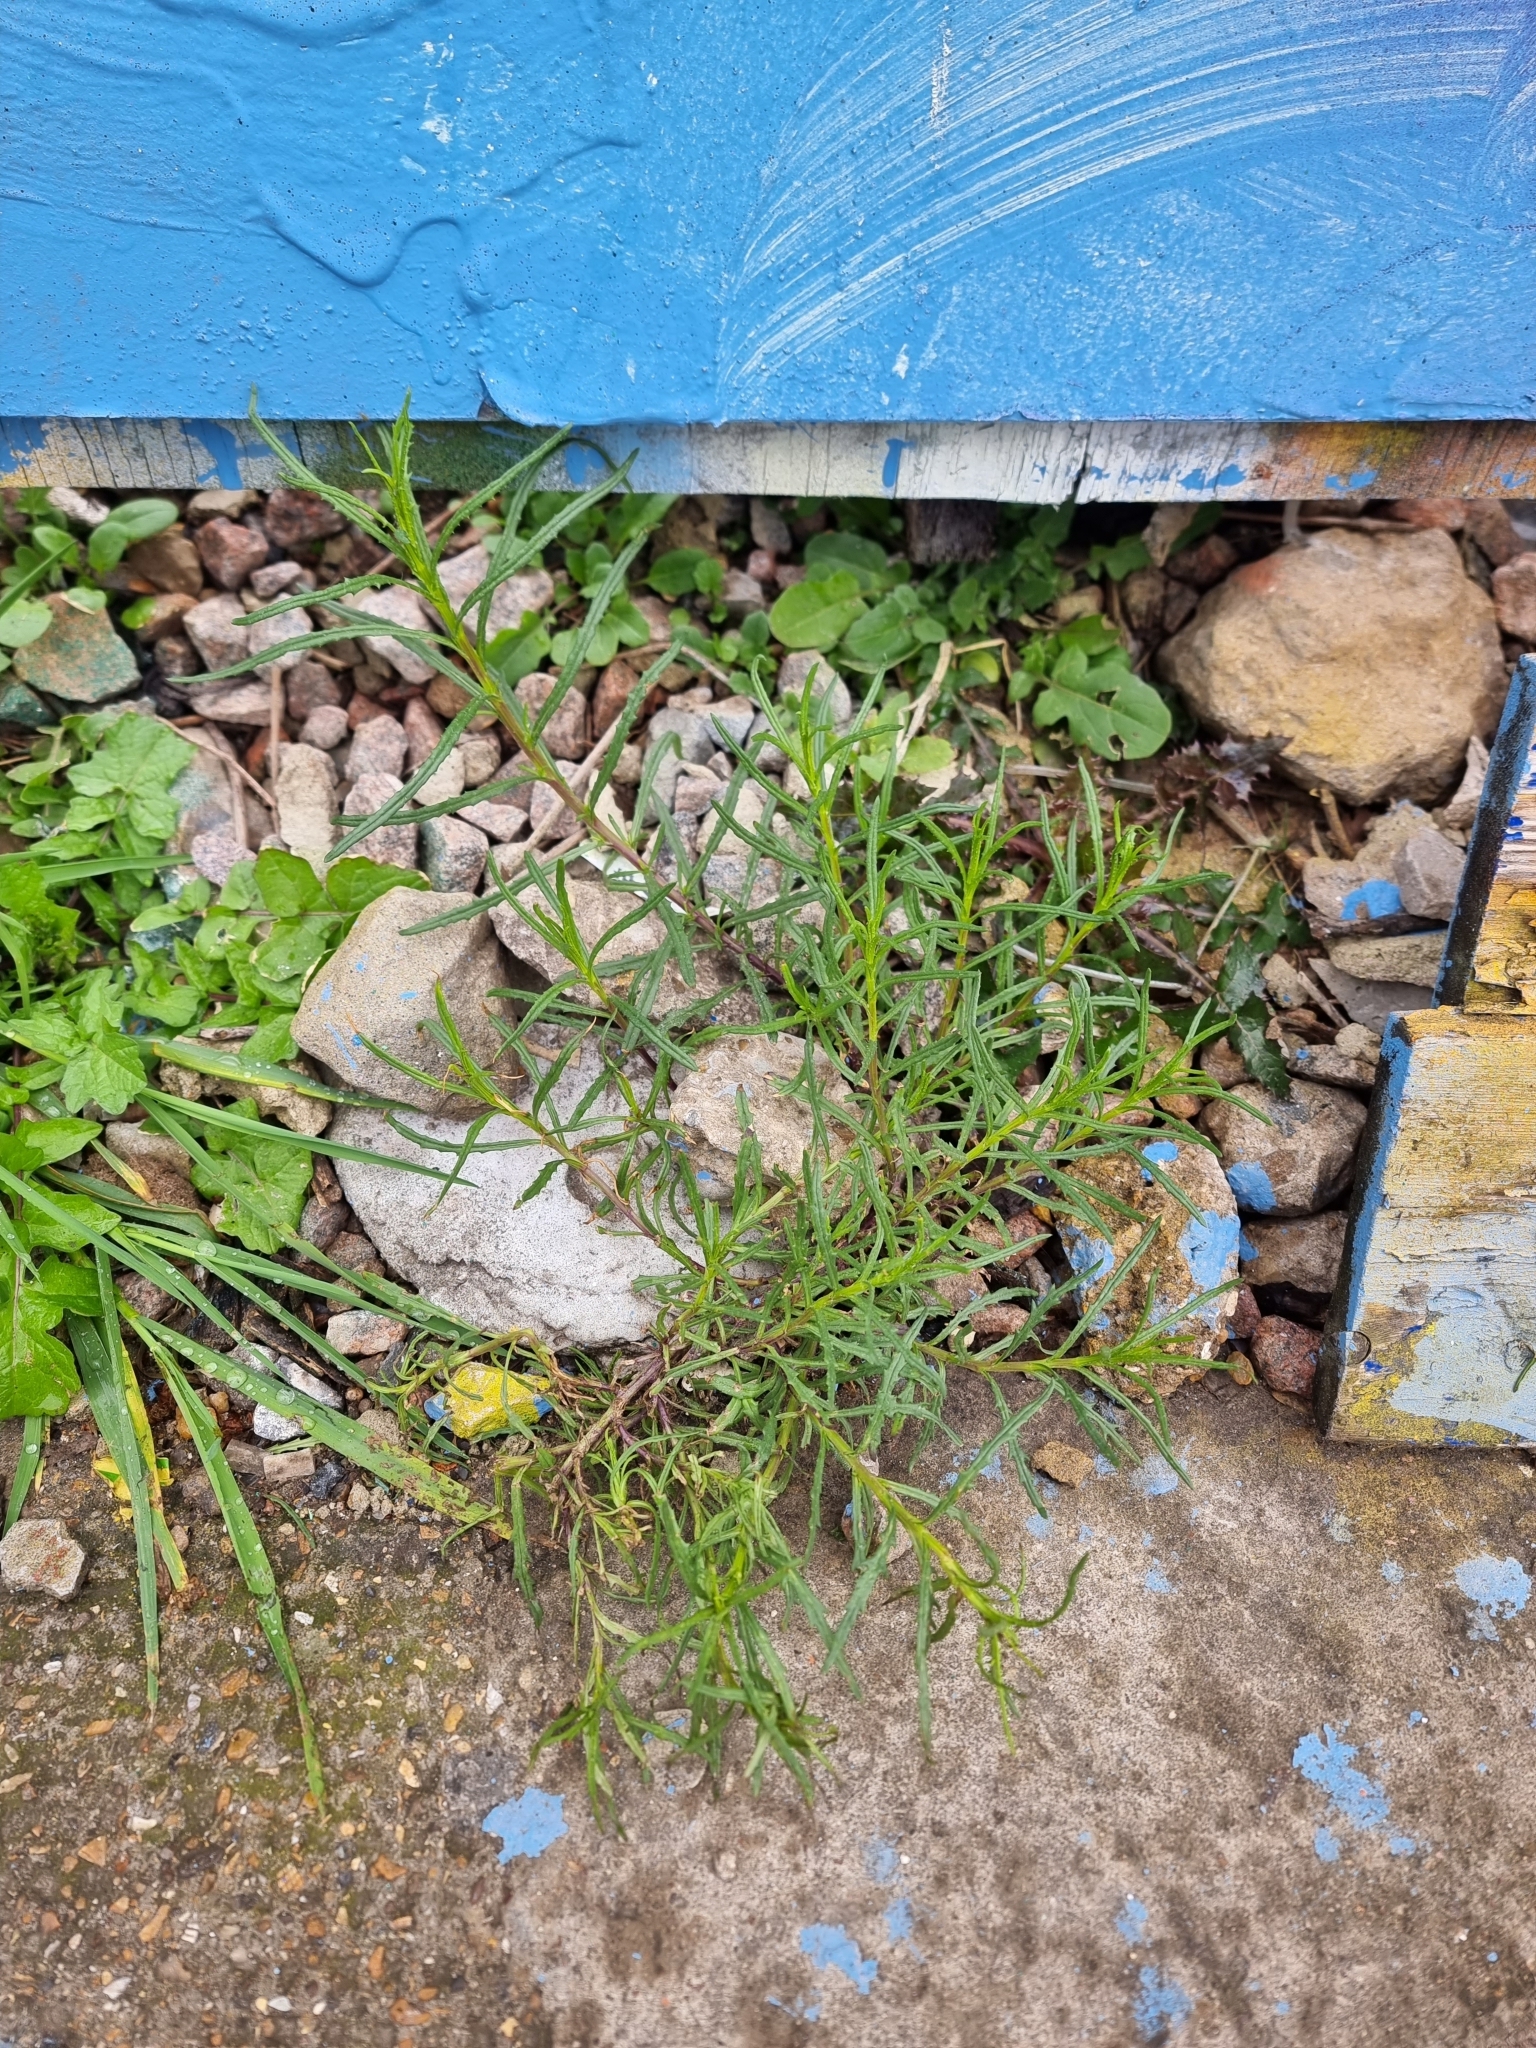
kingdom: Plantae
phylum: Tracheophyta
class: Magnoliopsida
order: Asterales
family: Asteraceae
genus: Senecio
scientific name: Senecio inaequidens
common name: Narrow-leaved ragwort
